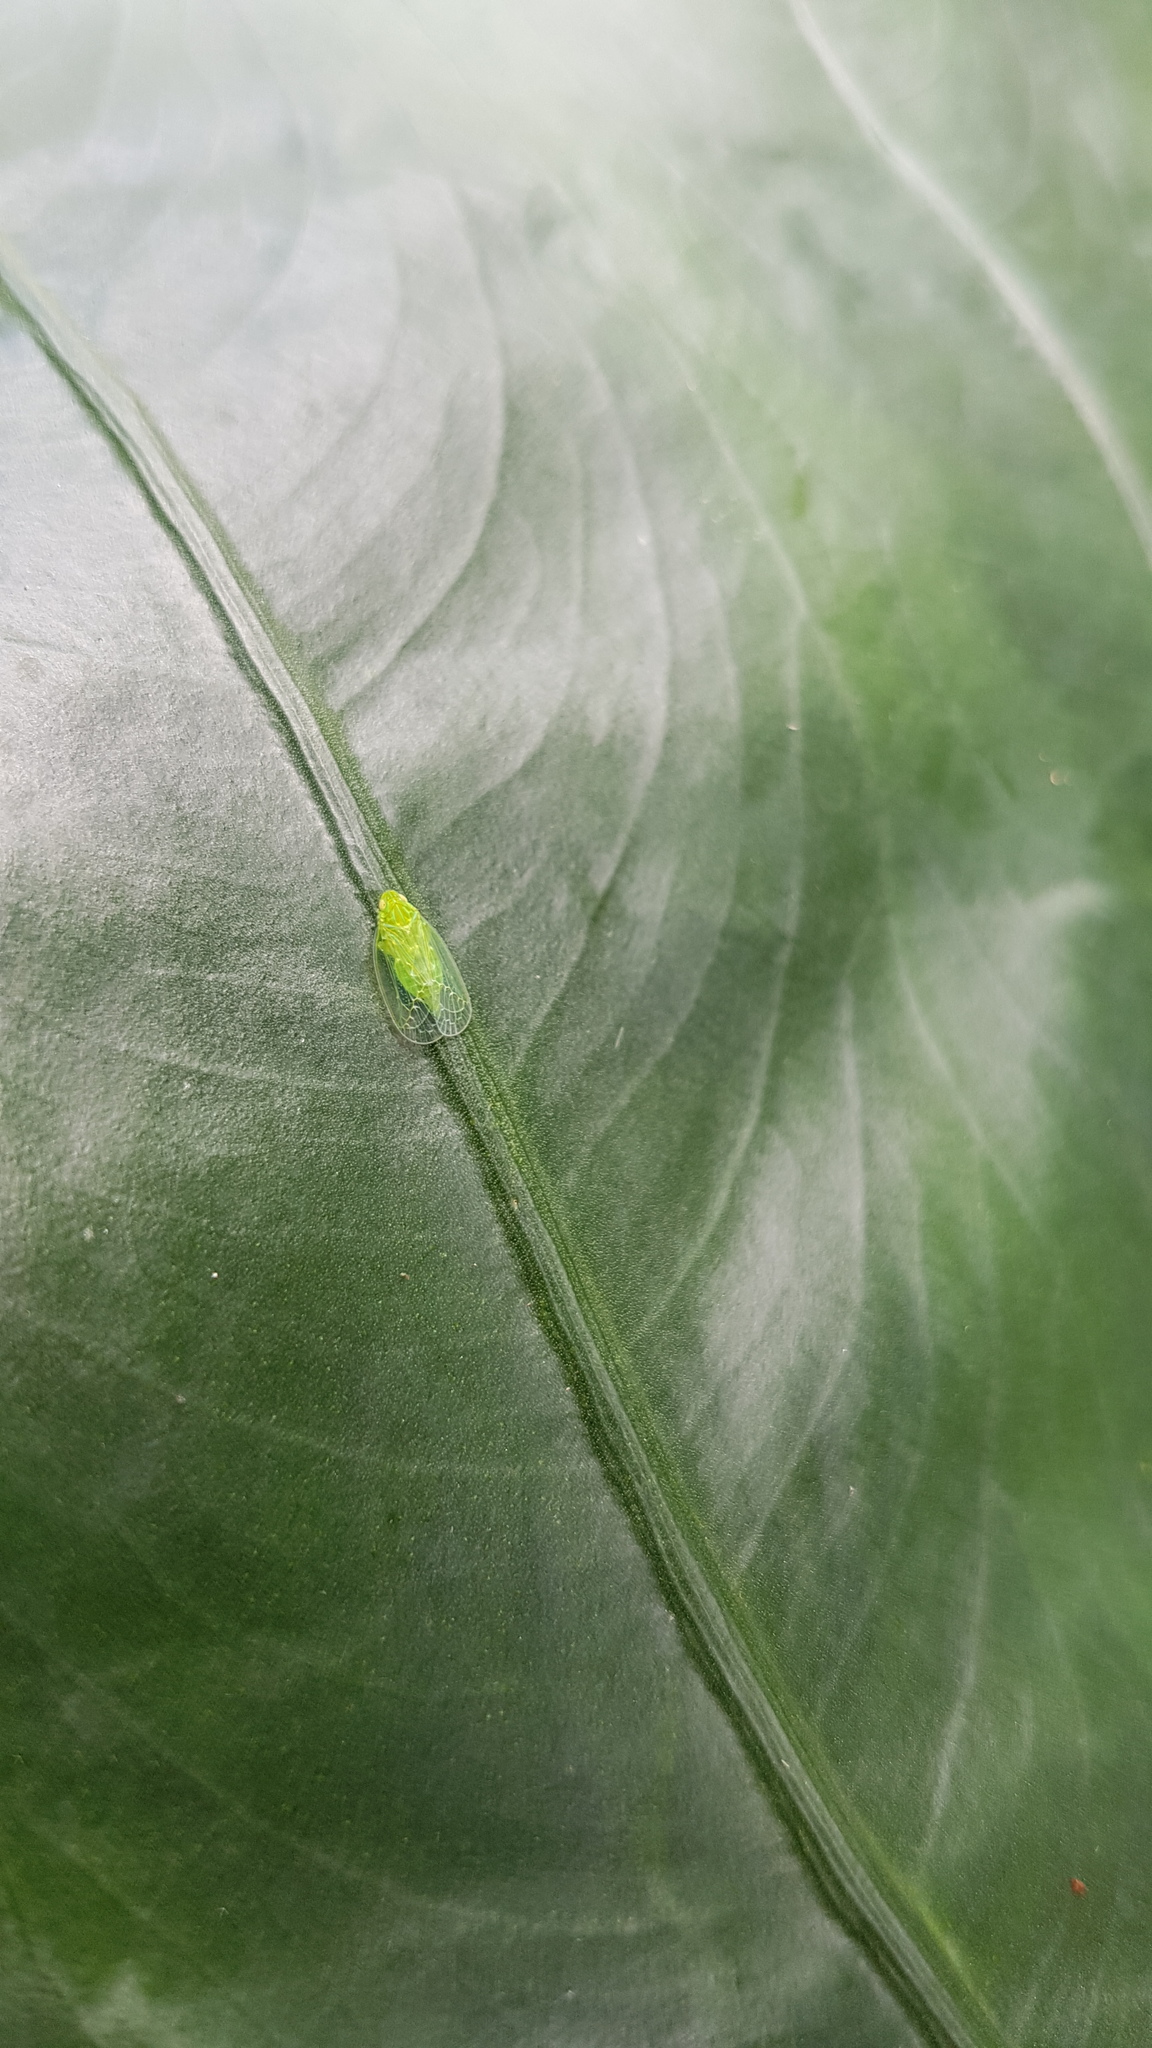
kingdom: Animalia
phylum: Arthropoda
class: Insecta
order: Hemiptera
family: Tropiduchidae
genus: Kallitaxila
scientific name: Kallitaxila granulata
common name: Planthopper
